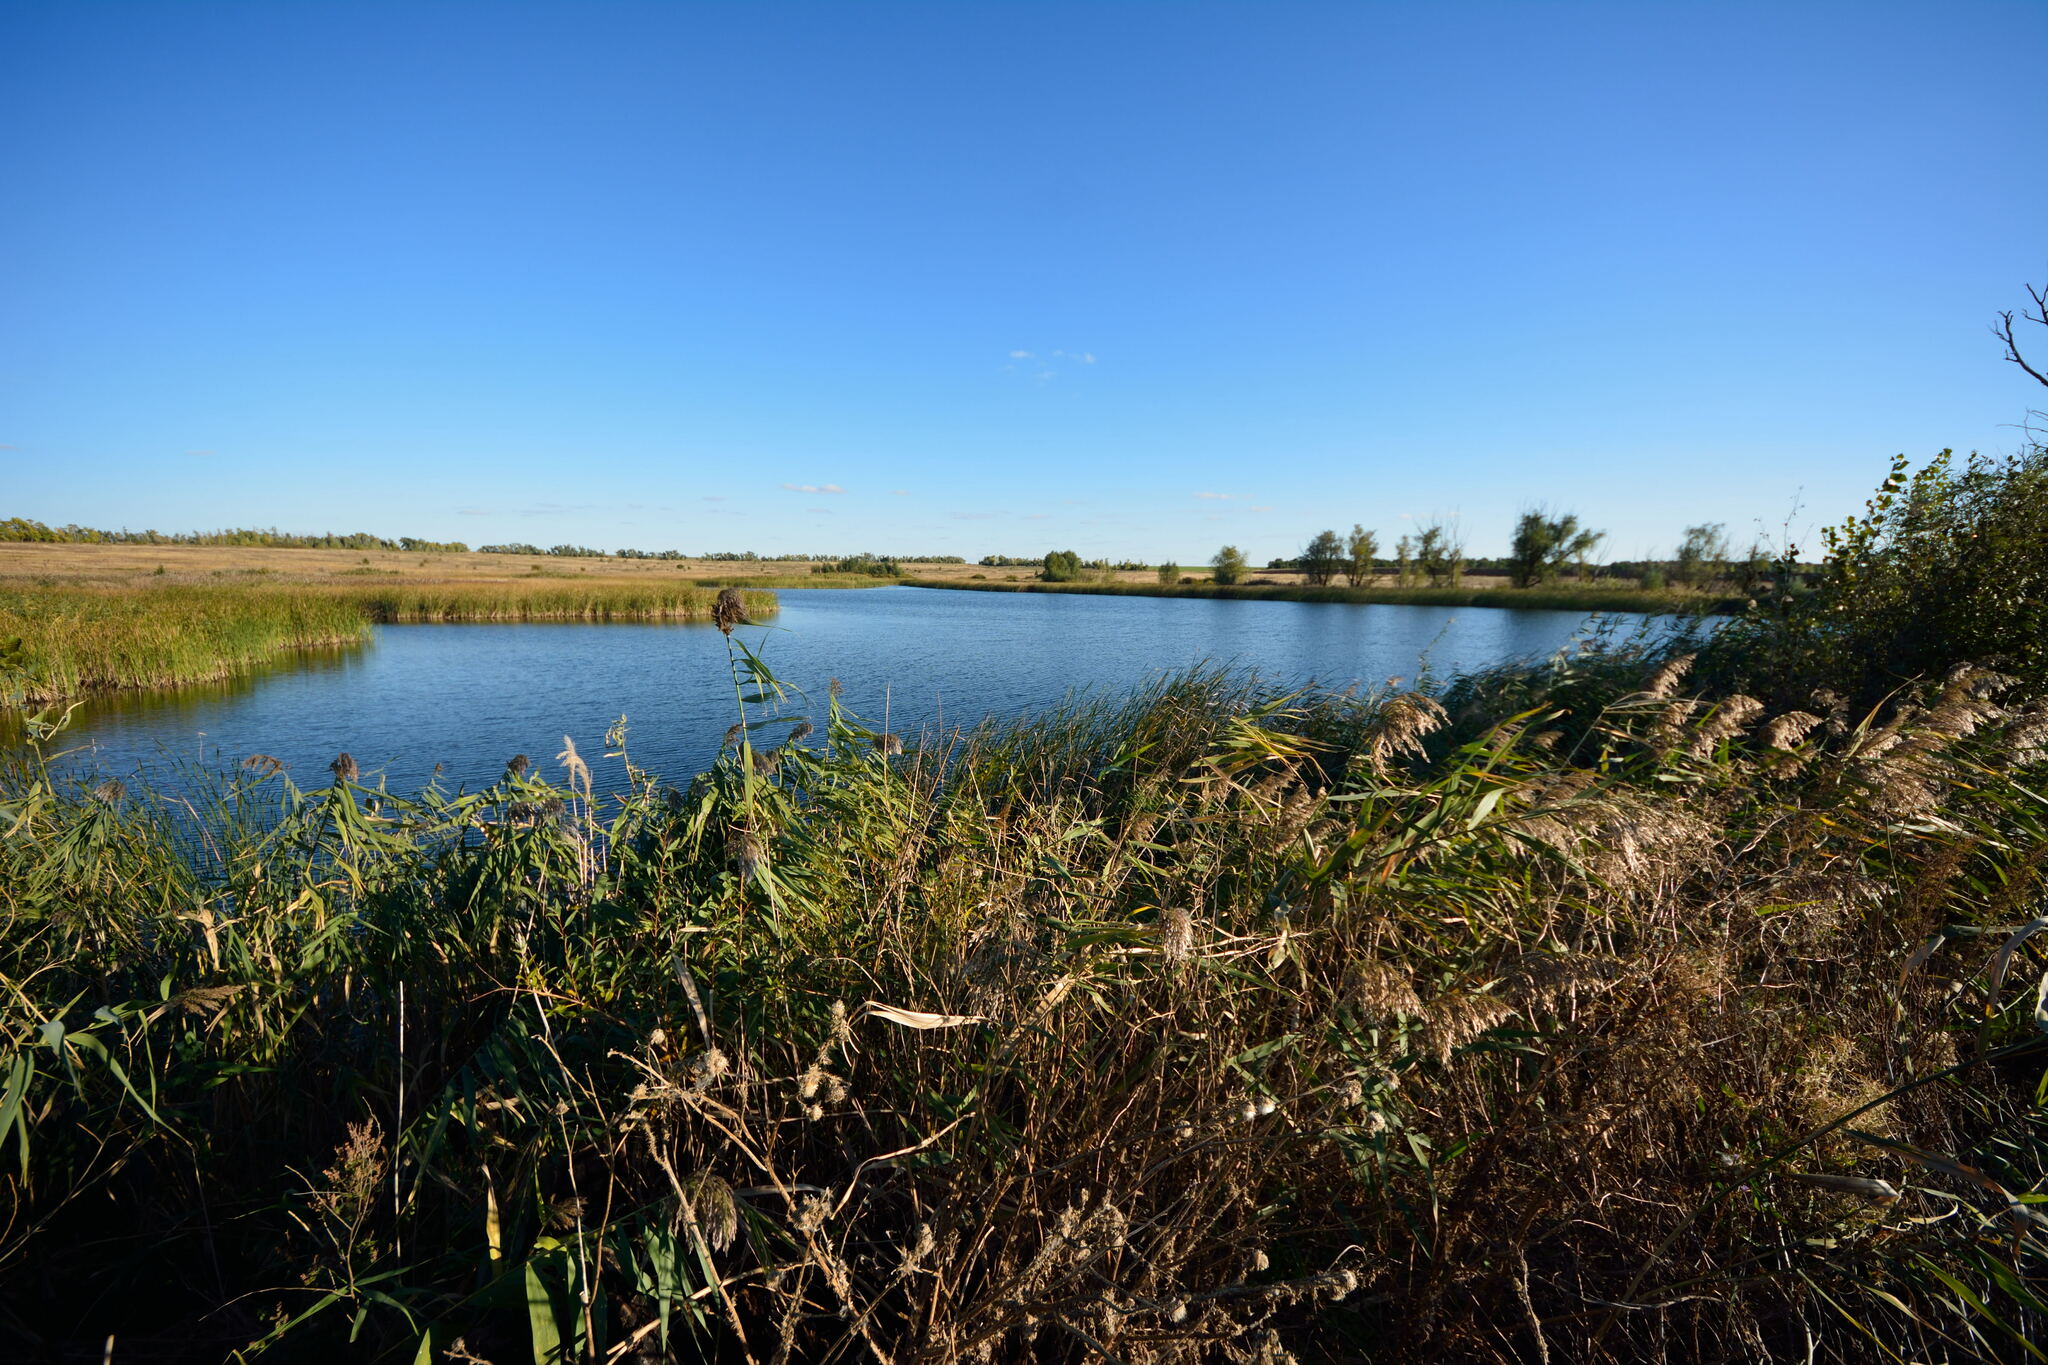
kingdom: Plantae
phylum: Tracheophyta
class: Liliopsida
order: Poales
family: Poaceae
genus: Phragmites
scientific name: Phragmites australis
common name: Common reed
